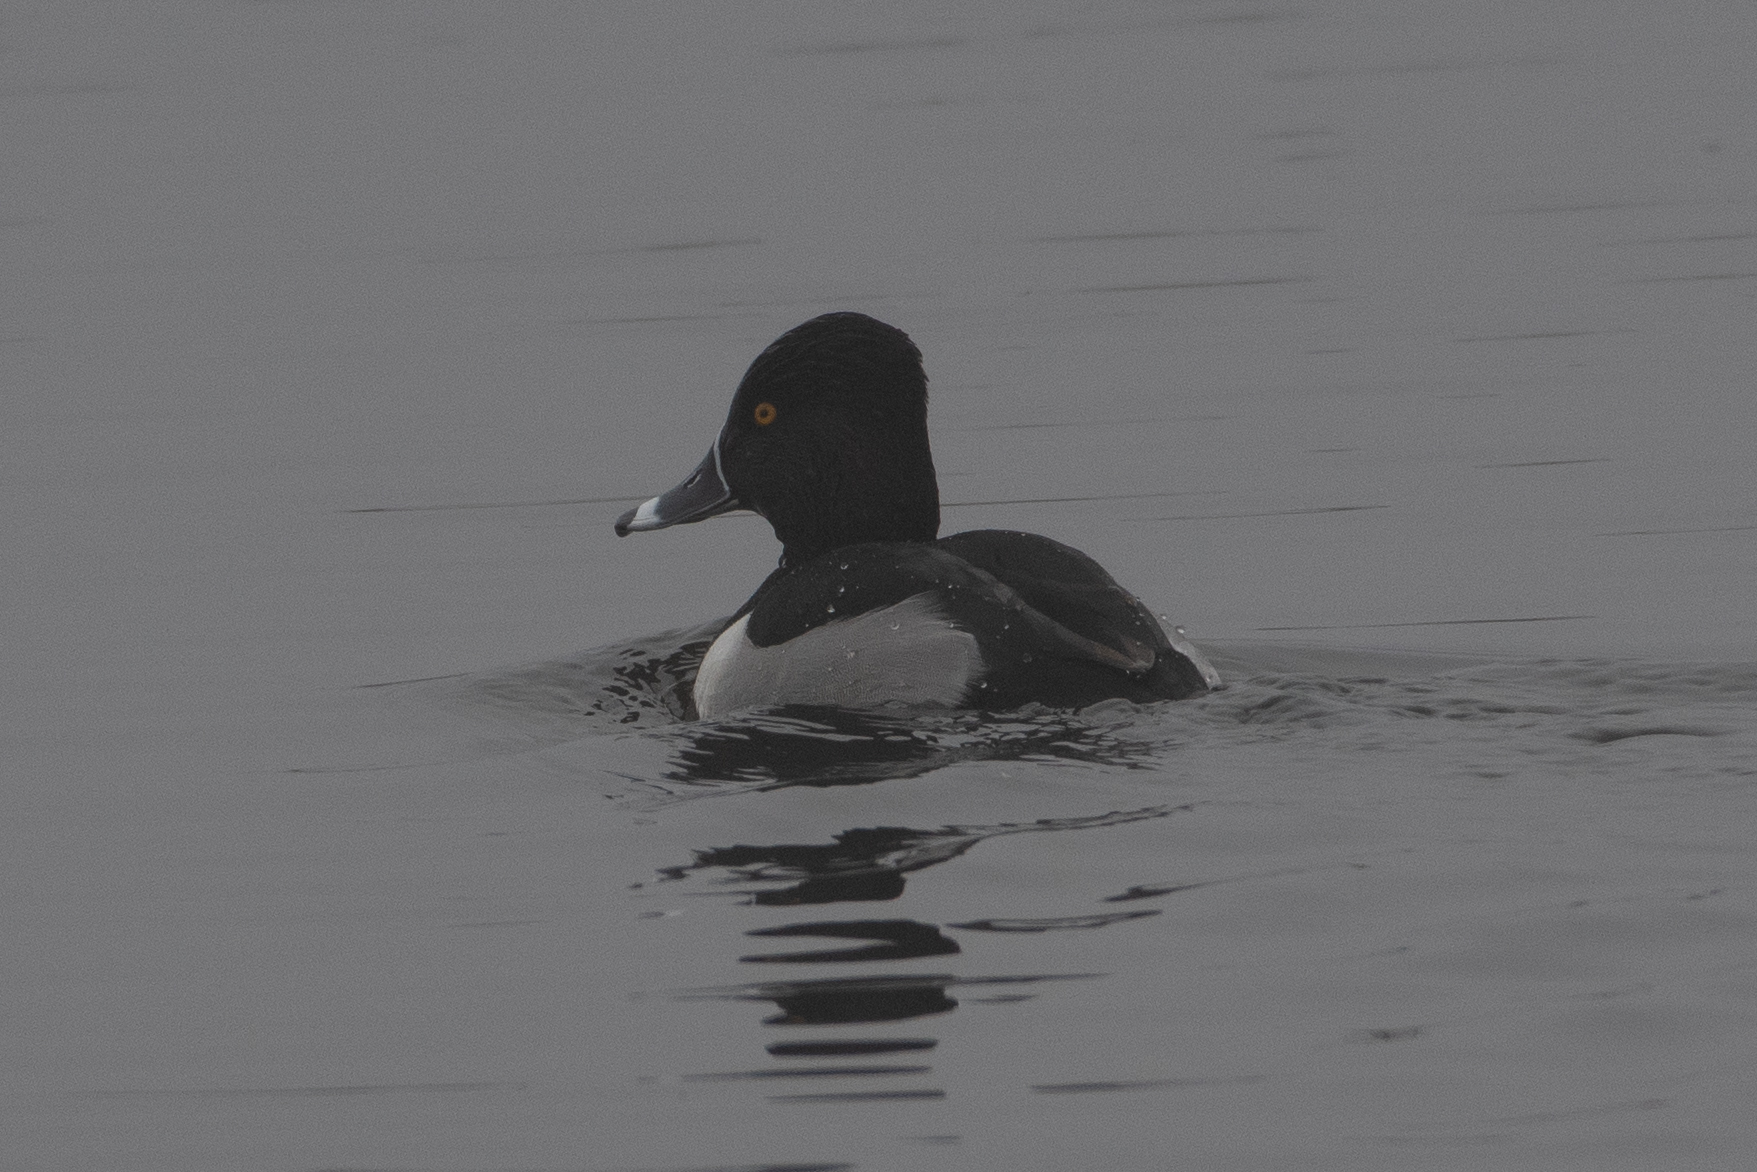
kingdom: Animalia
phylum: Chordata
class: Aves
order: Anseriformes
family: Anatidae
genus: Aythya
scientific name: Aythya collaris
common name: Ring-necked duck
